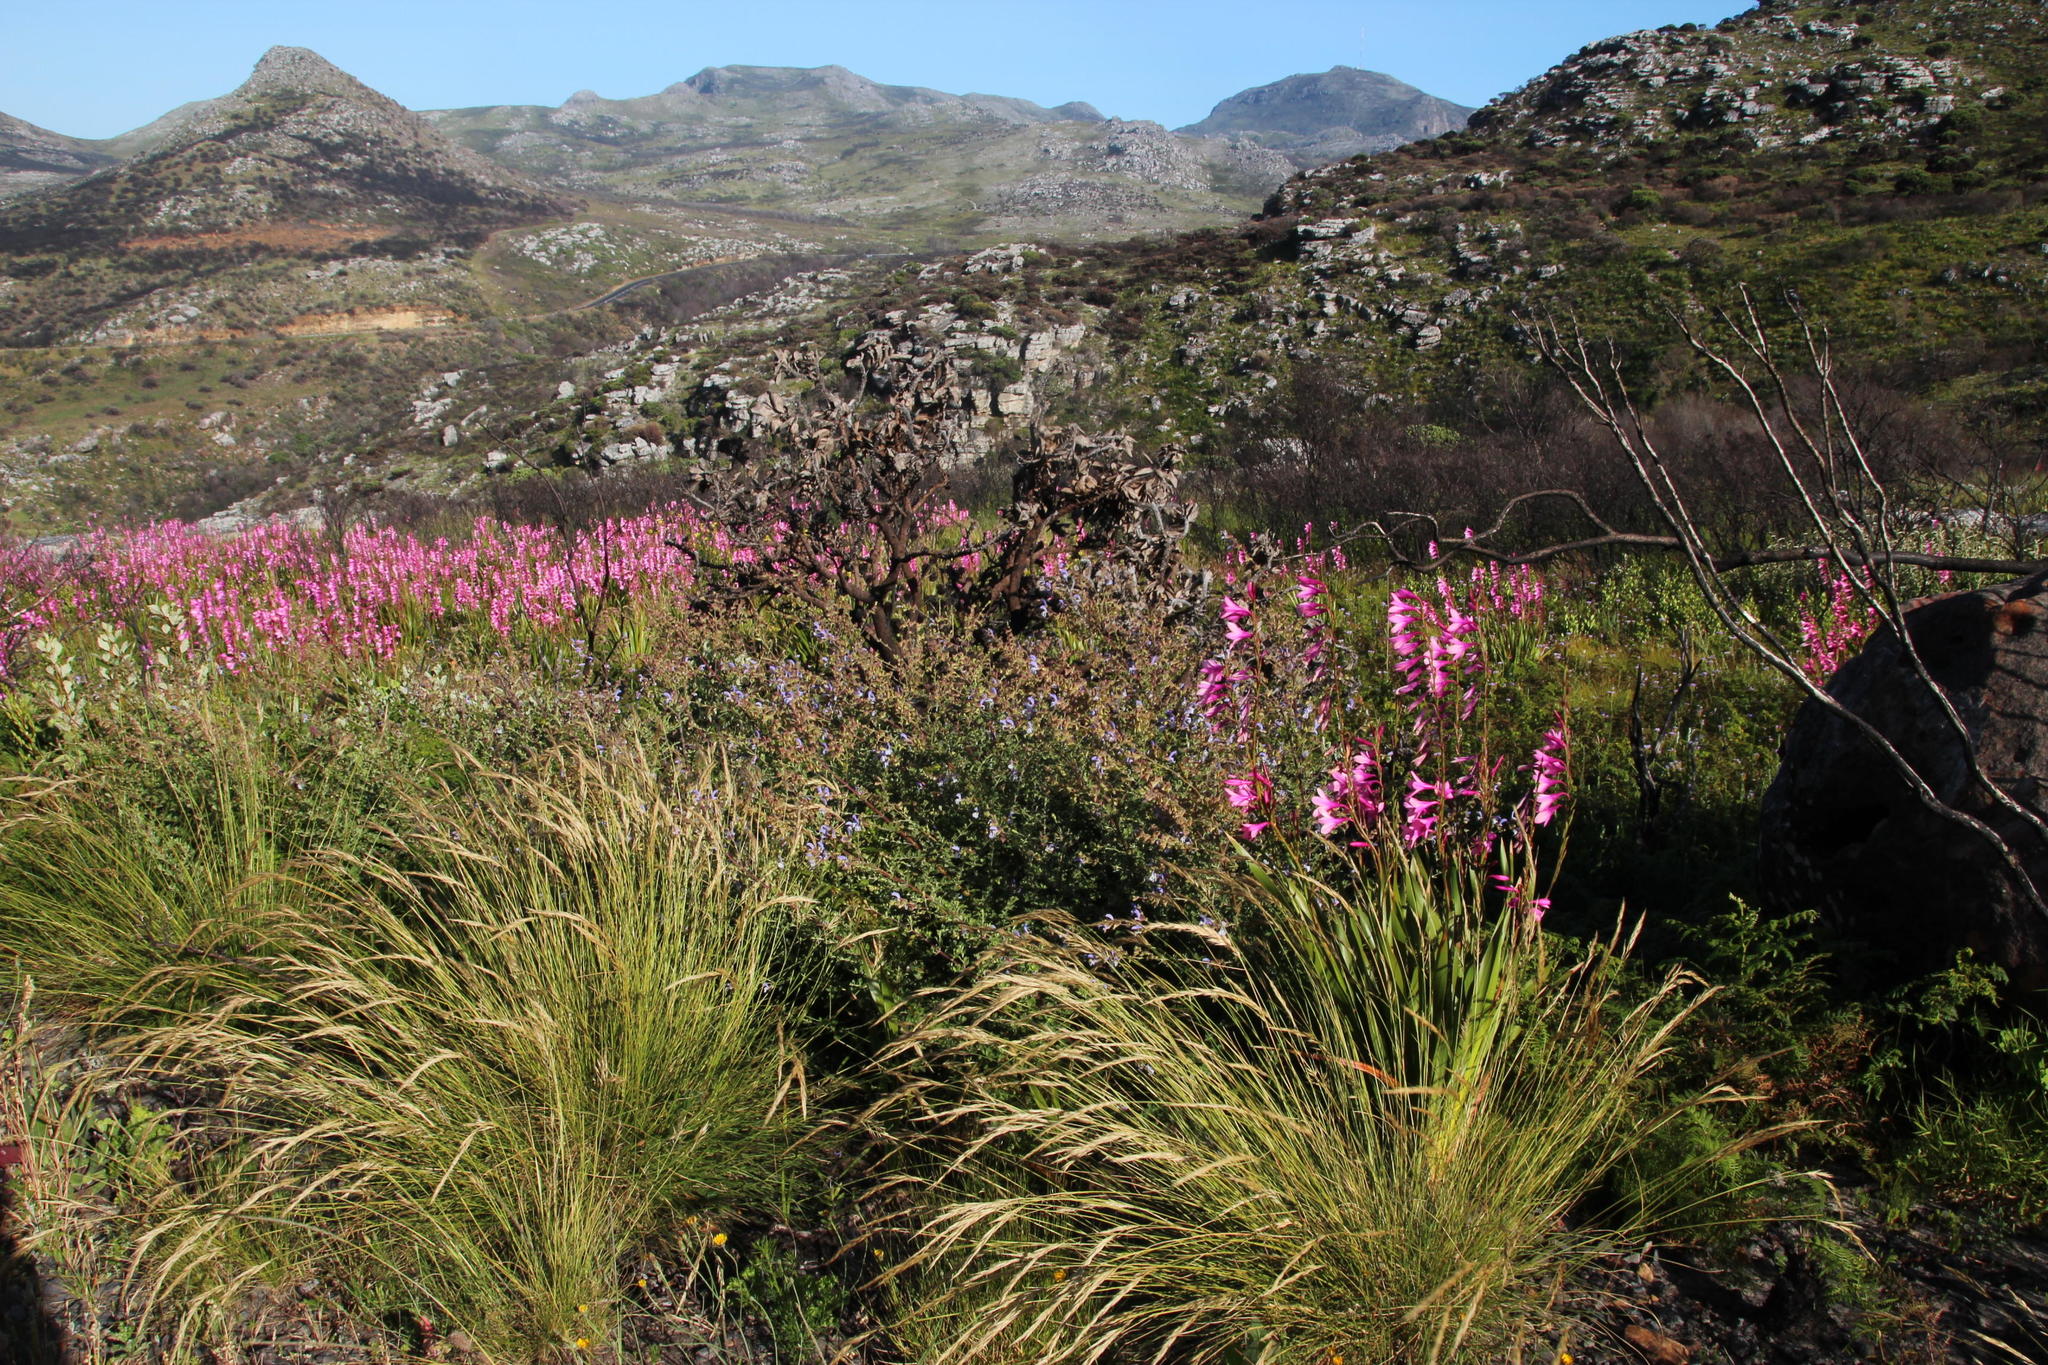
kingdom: Plantae
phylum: Tracheophyta
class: Magnoliopsida
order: Lamiales
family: Lamiaceae
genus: Salvia
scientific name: Salvia africana
